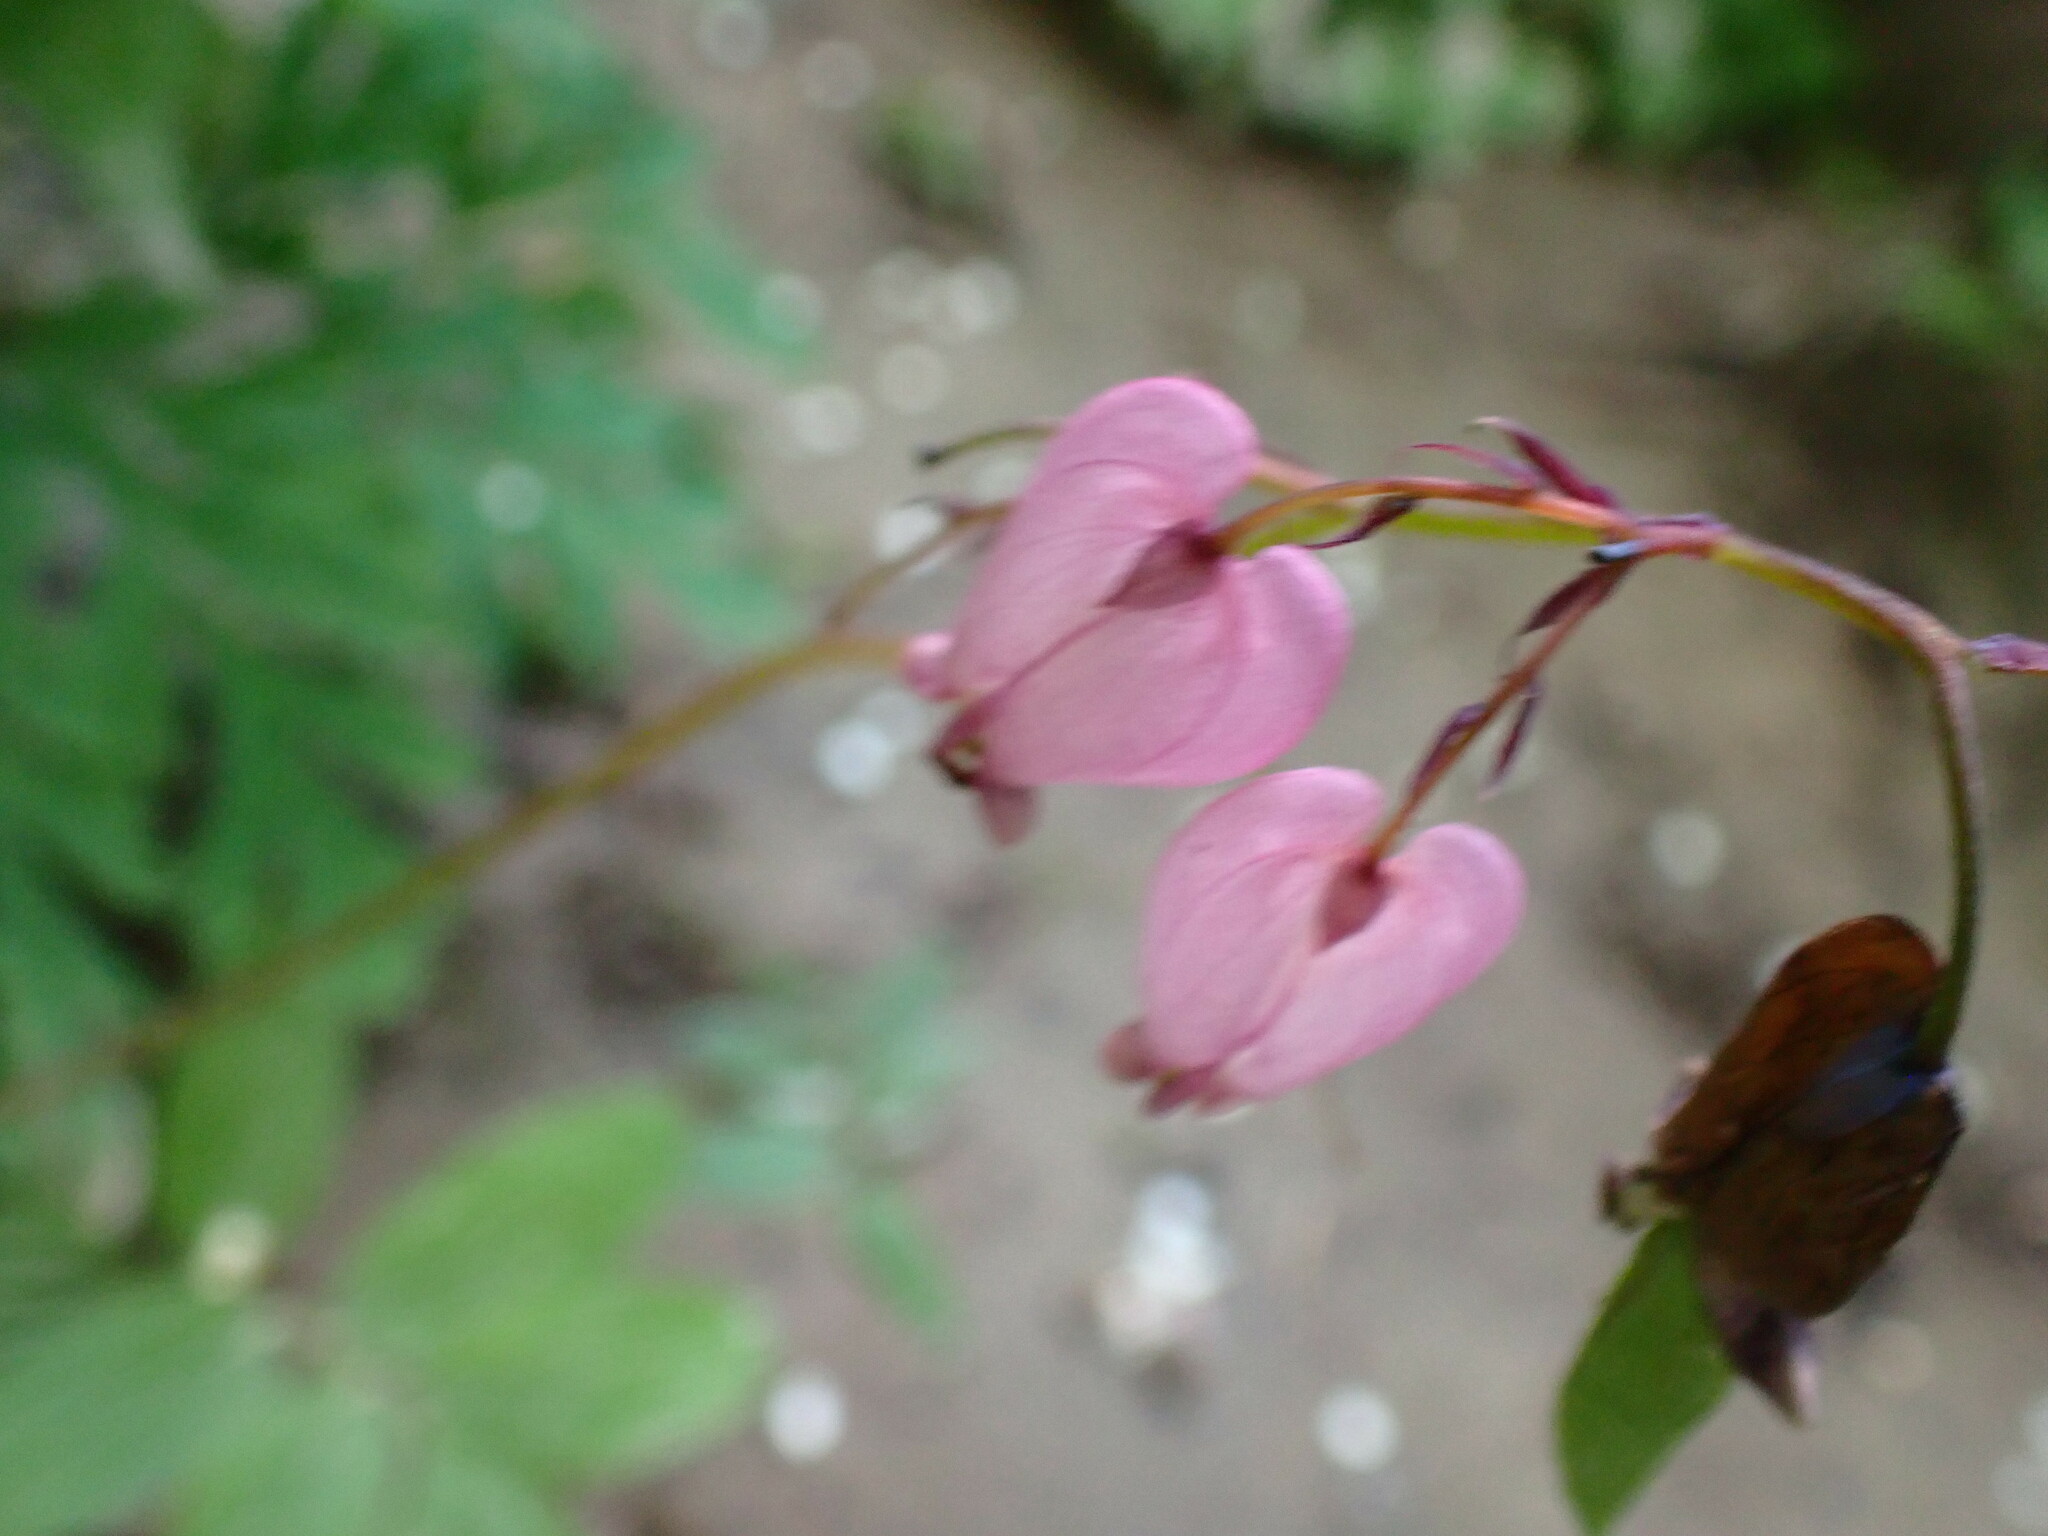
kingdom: Plantae
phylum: Tracheophyta
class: Magnoliopsida
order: Ranunculales
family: Papaveraceae
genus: Dicentra
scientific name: Dicentra formosa
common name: Bleeding-heart
